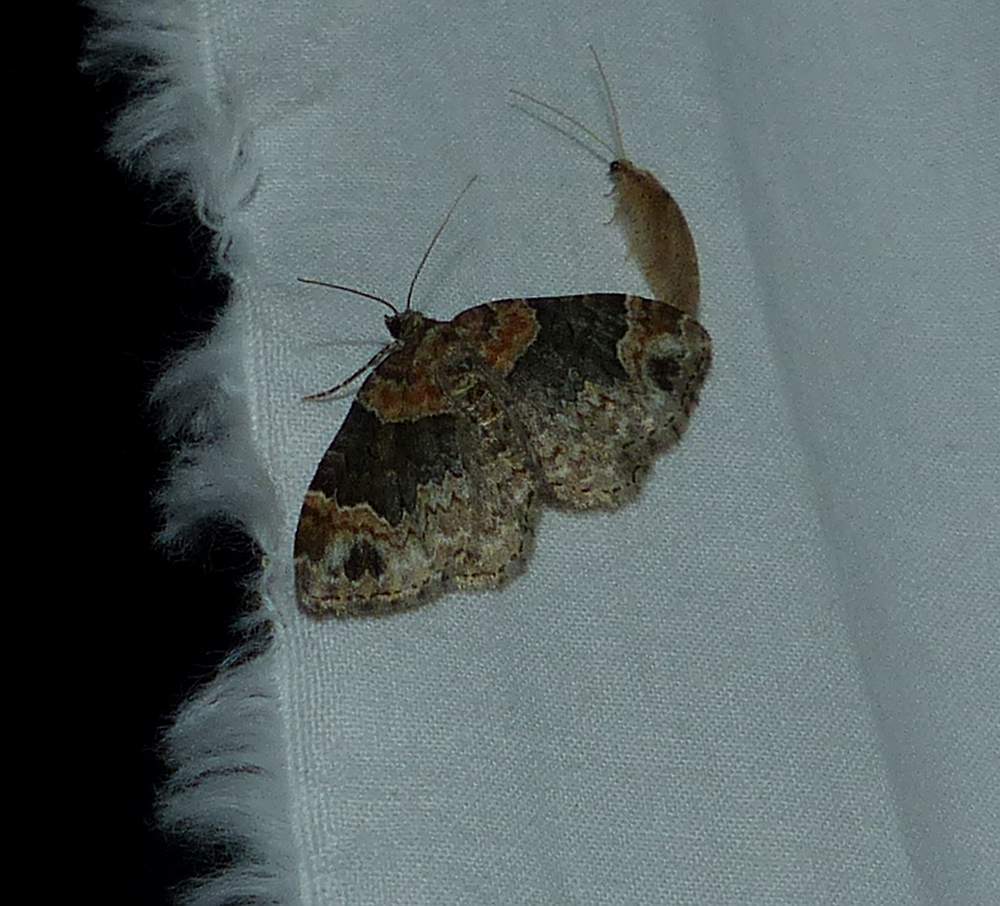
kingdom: Animalia
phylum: Arthropoda
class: Insecta
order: Lepidoptera
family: Geometridae
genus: Xanthorhoe
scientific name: Xanthorhoe ferrugata
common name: Dark-barred twin-spot carpet
